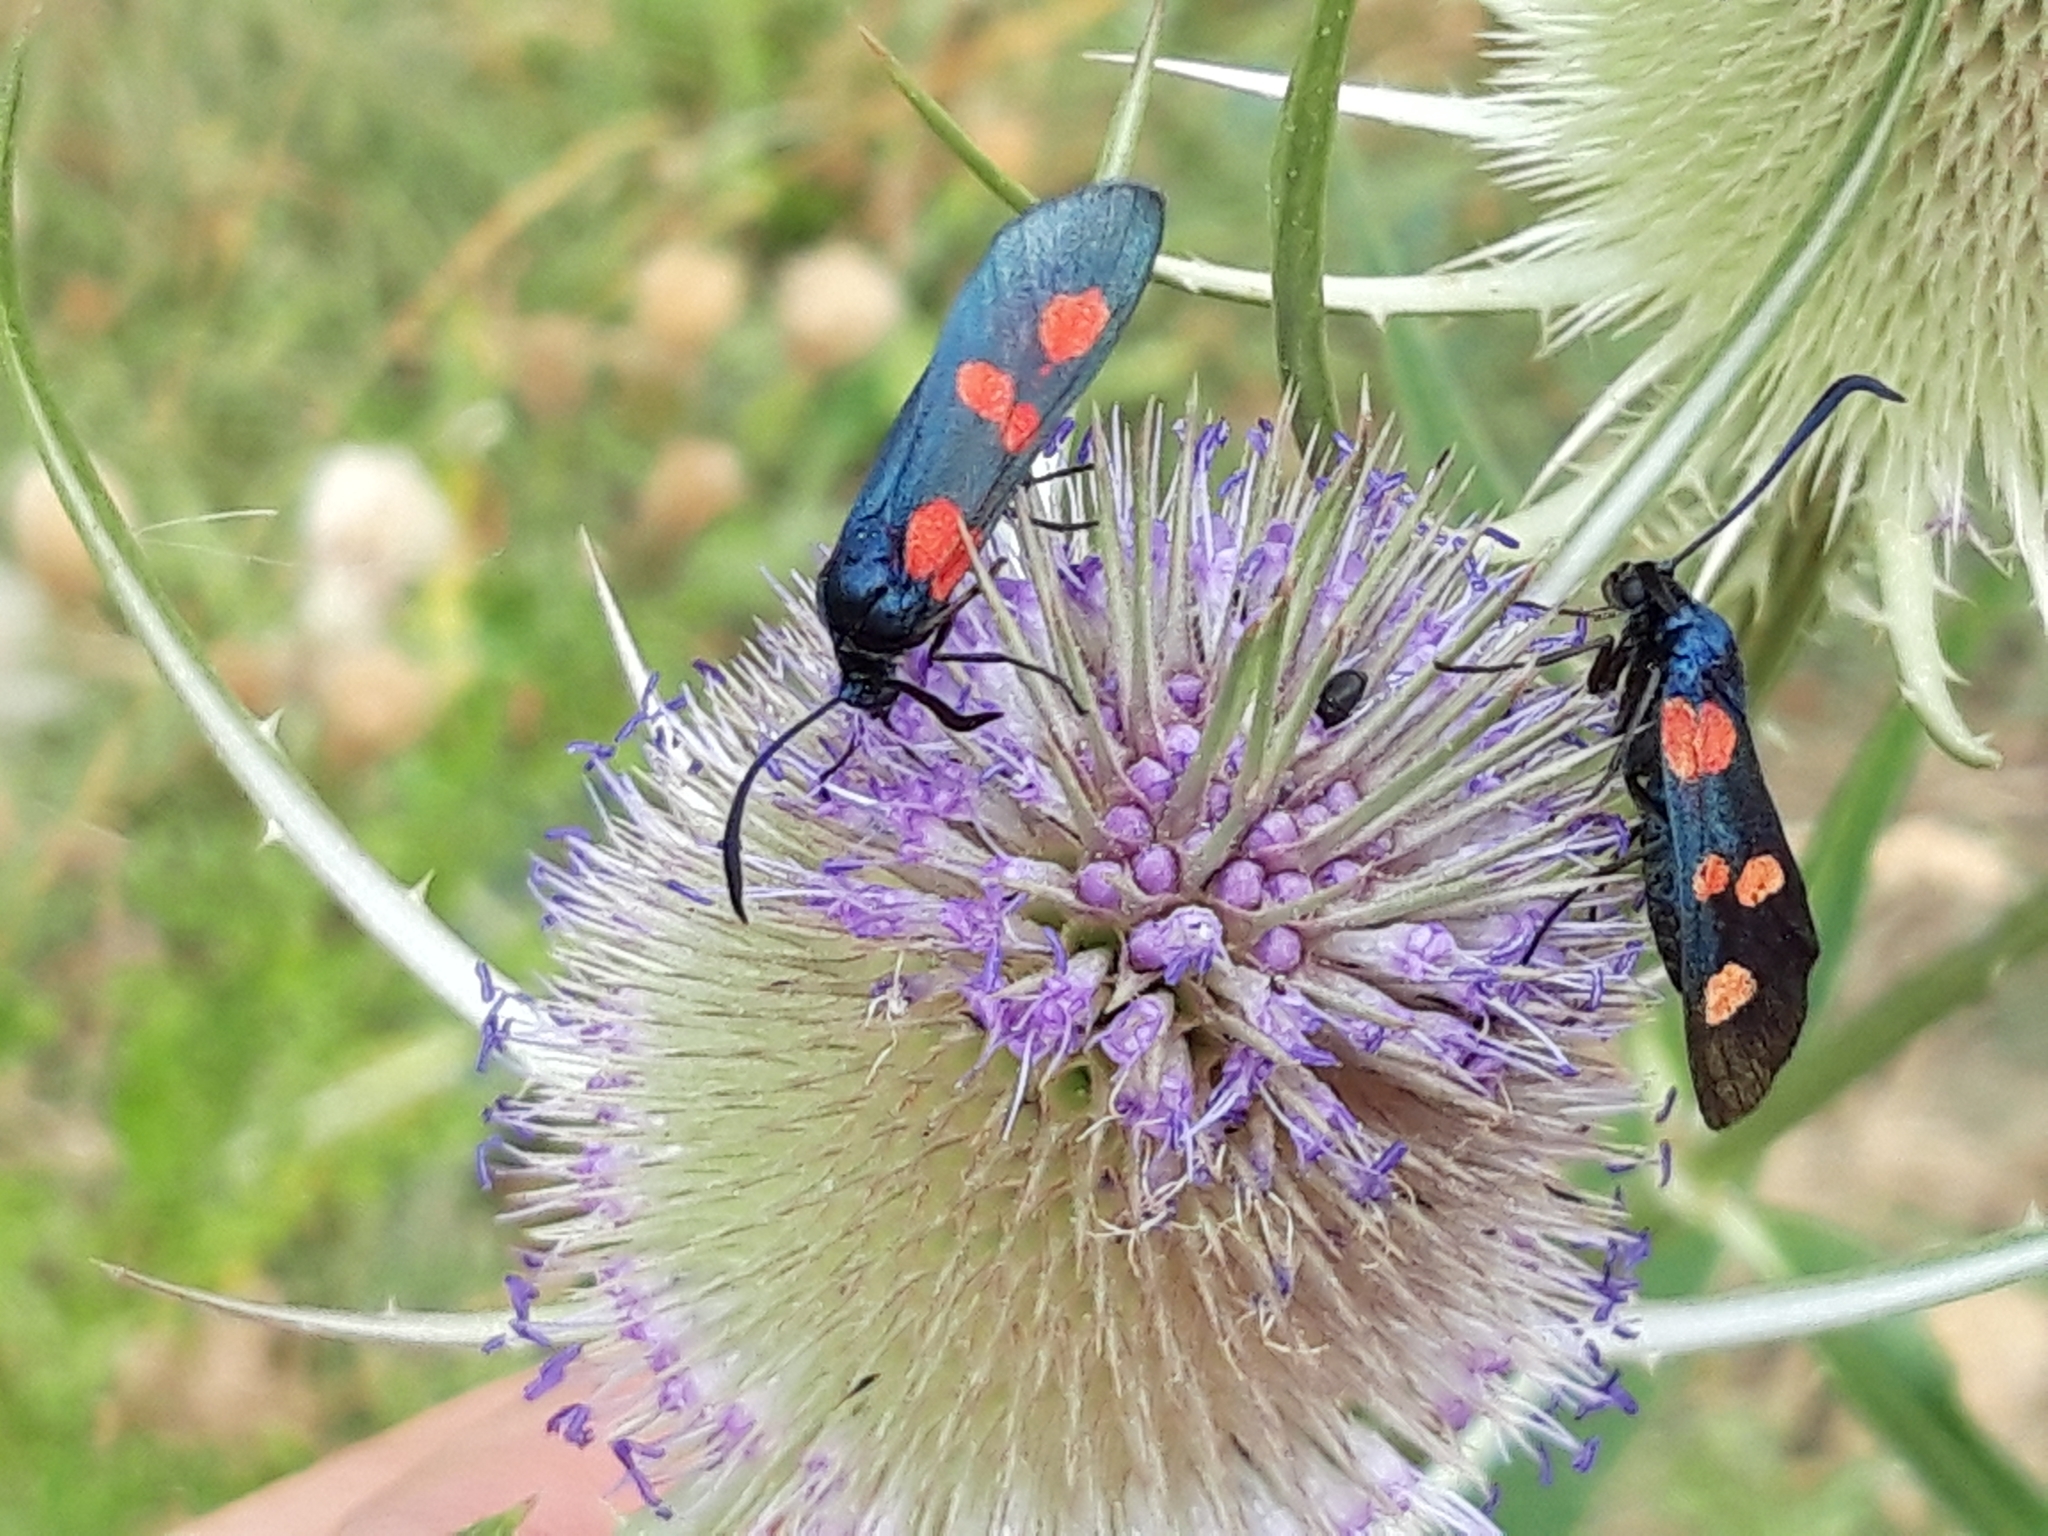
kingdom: Animalia
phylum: Arthropoda
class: Insecta
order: Lepidoptera
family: Zygaenidae
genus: Zygaena
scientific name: Zygaena trifolii
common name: Five-spot burnet
